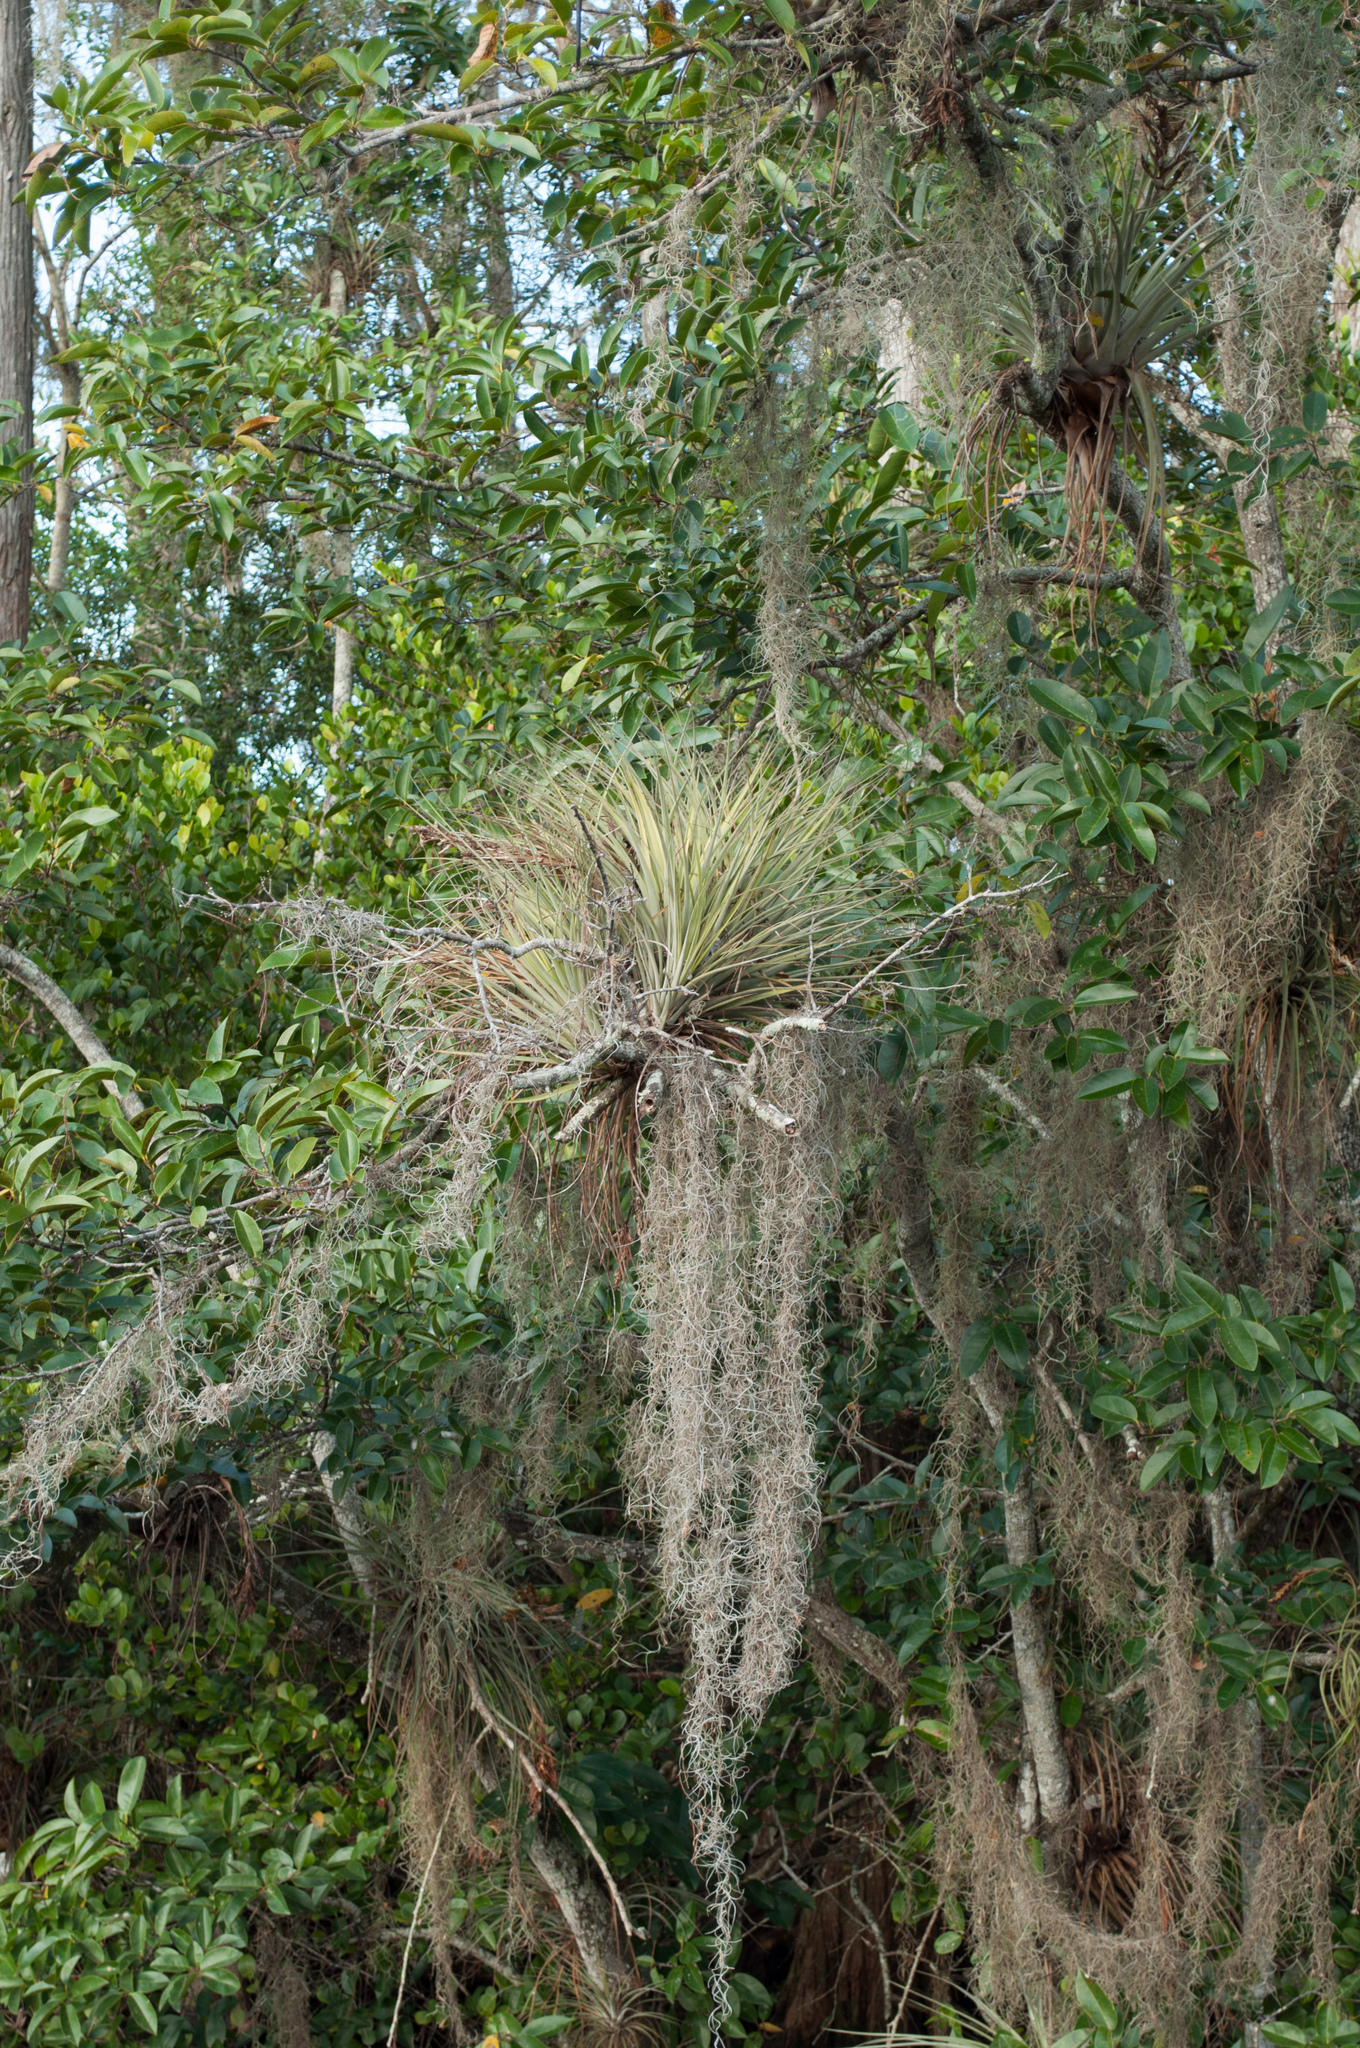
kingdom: Plantae
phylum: Tracheophyta
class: Liliopsida
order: Poales
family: Bromeliaceae
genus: Tillandsia
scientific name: Tillandsia fasciculata
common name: Giant airplant
